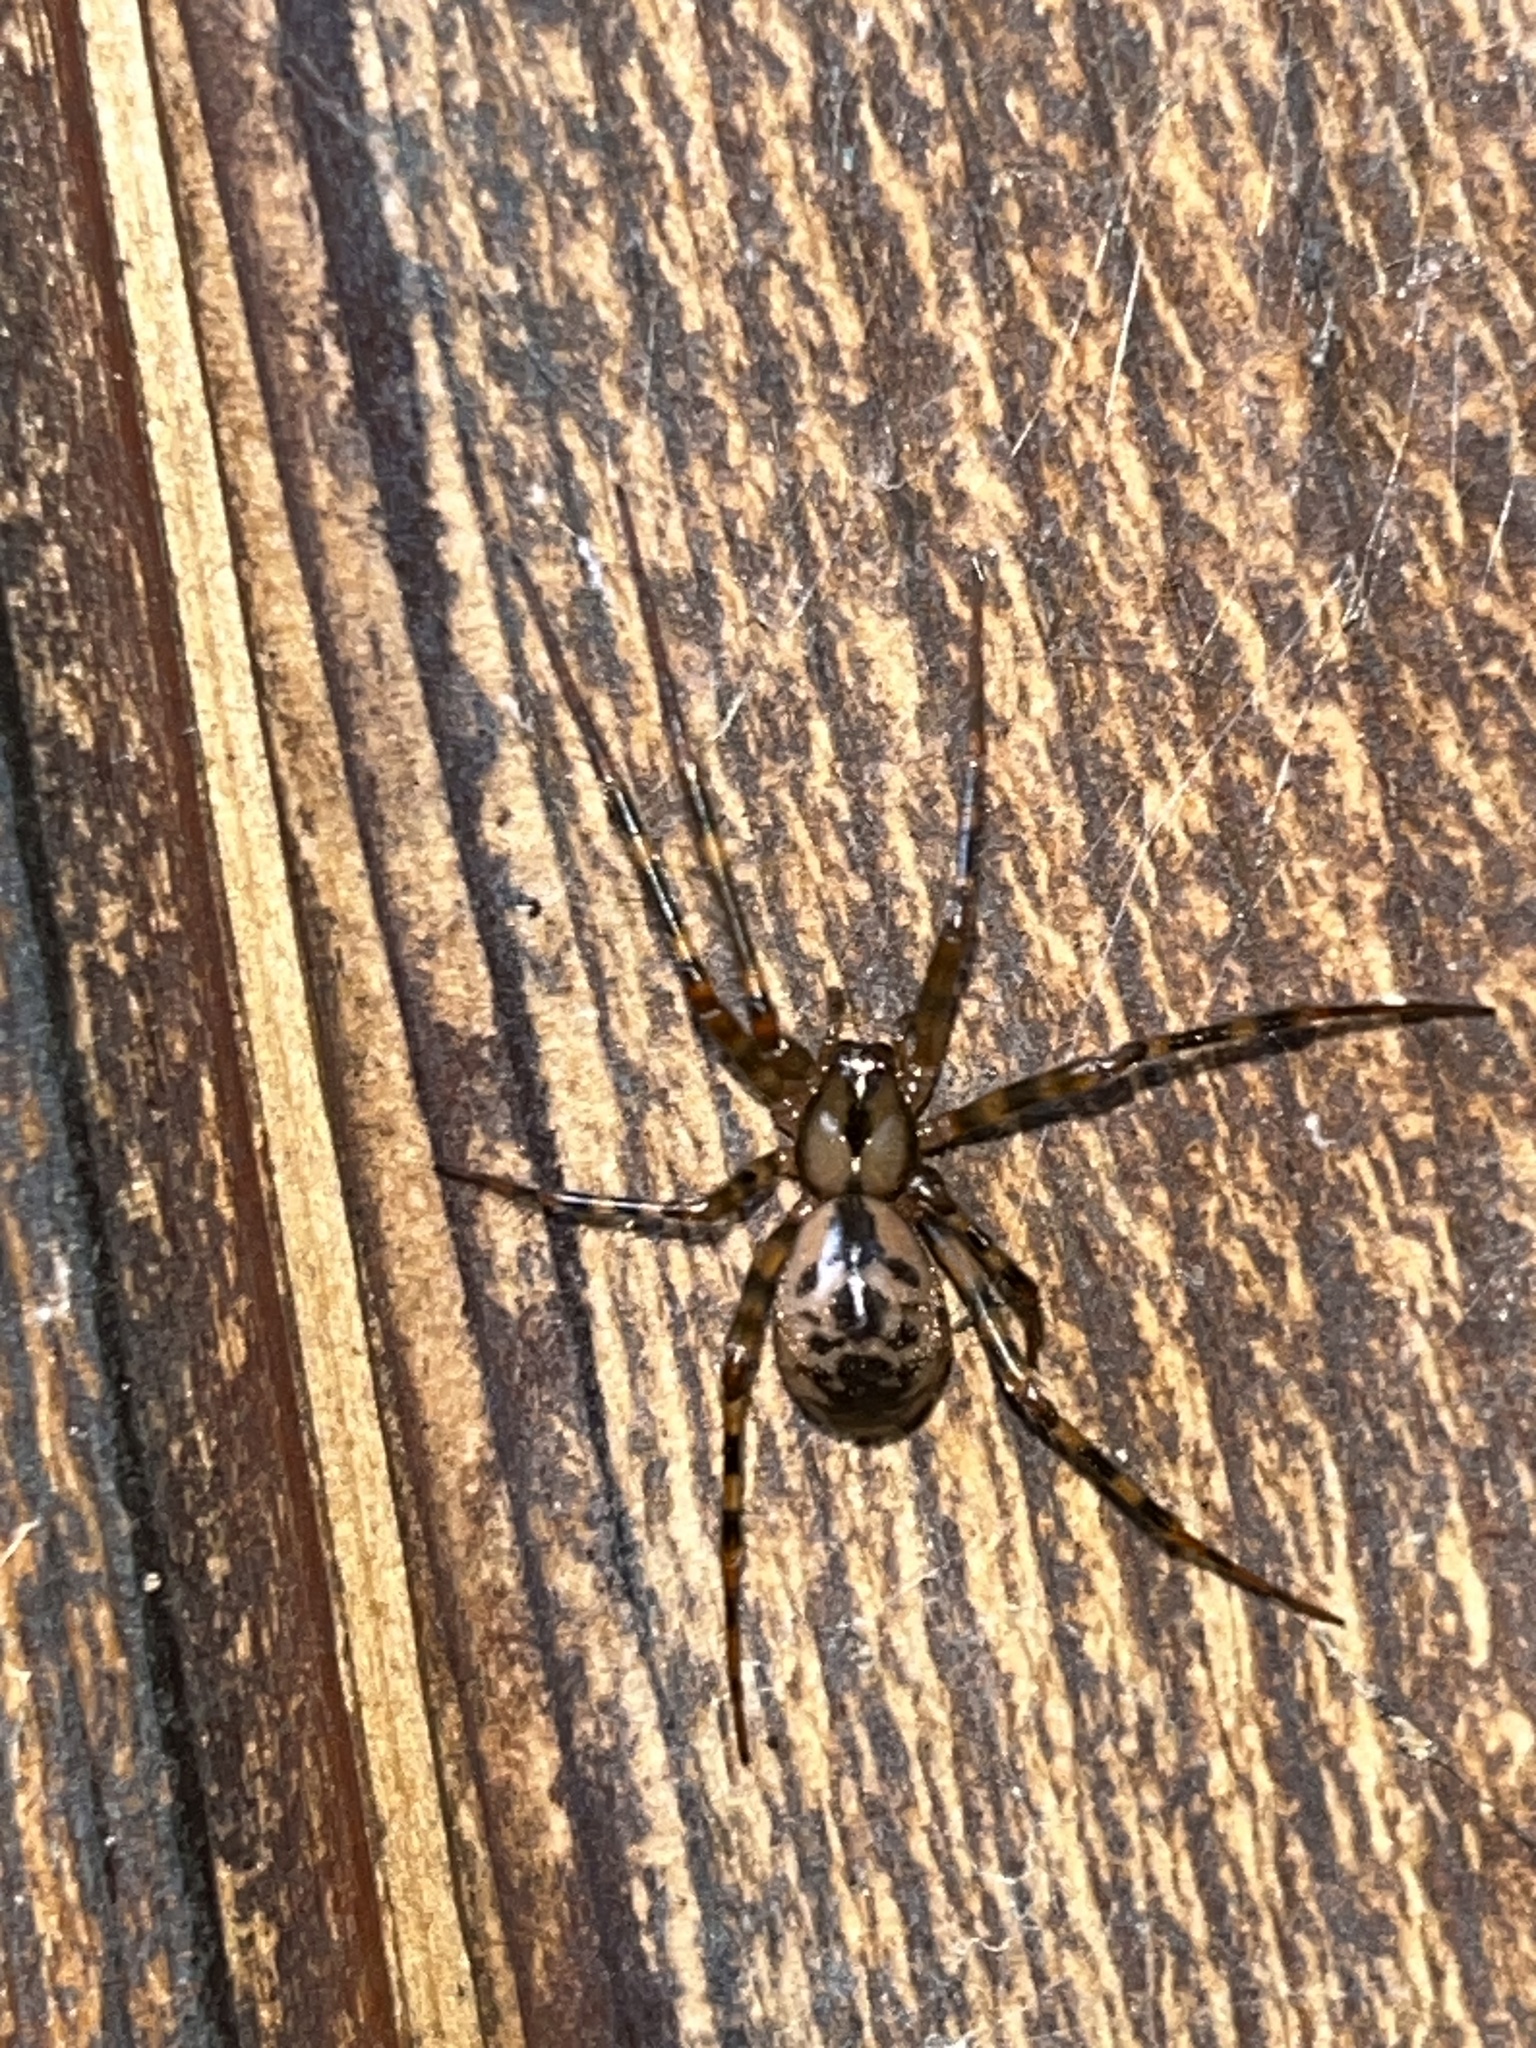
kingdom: Animalia
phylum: Arthropoda
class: Arachnida
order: Araneae
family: Pimoidae
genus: Pimoa
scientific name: Pimoa altioculata
